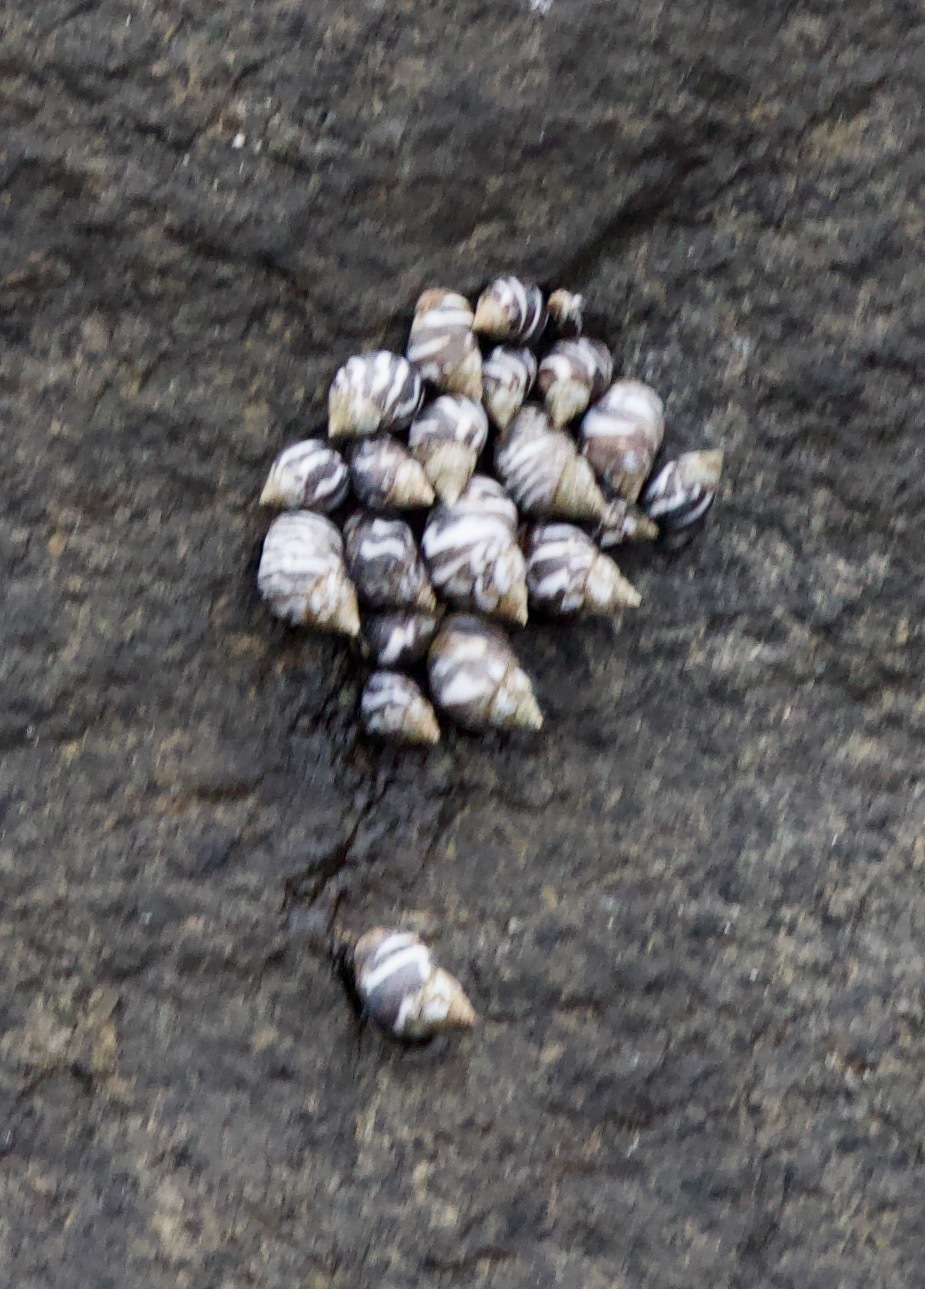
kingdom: Animalia
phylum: Mollusca
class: Gastropoda
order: Littorinimorpha
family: Littorinidae
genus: Echinolittorina
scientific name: Echinolittorina peruviana
